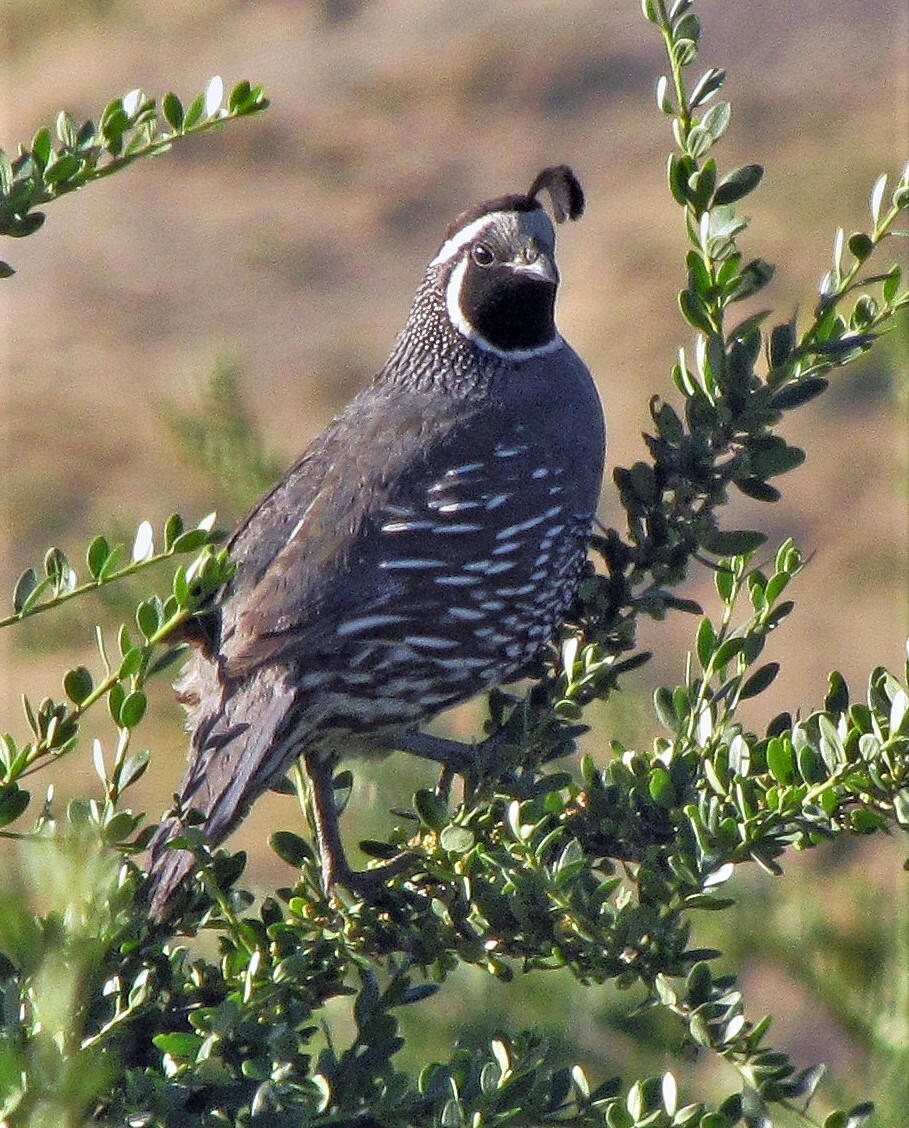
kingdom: Animalia
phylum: Chordata
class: Aves
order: Galliformes
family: Odontophoridae
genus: Callipepla
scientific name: Callipepla californica
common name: California quail
